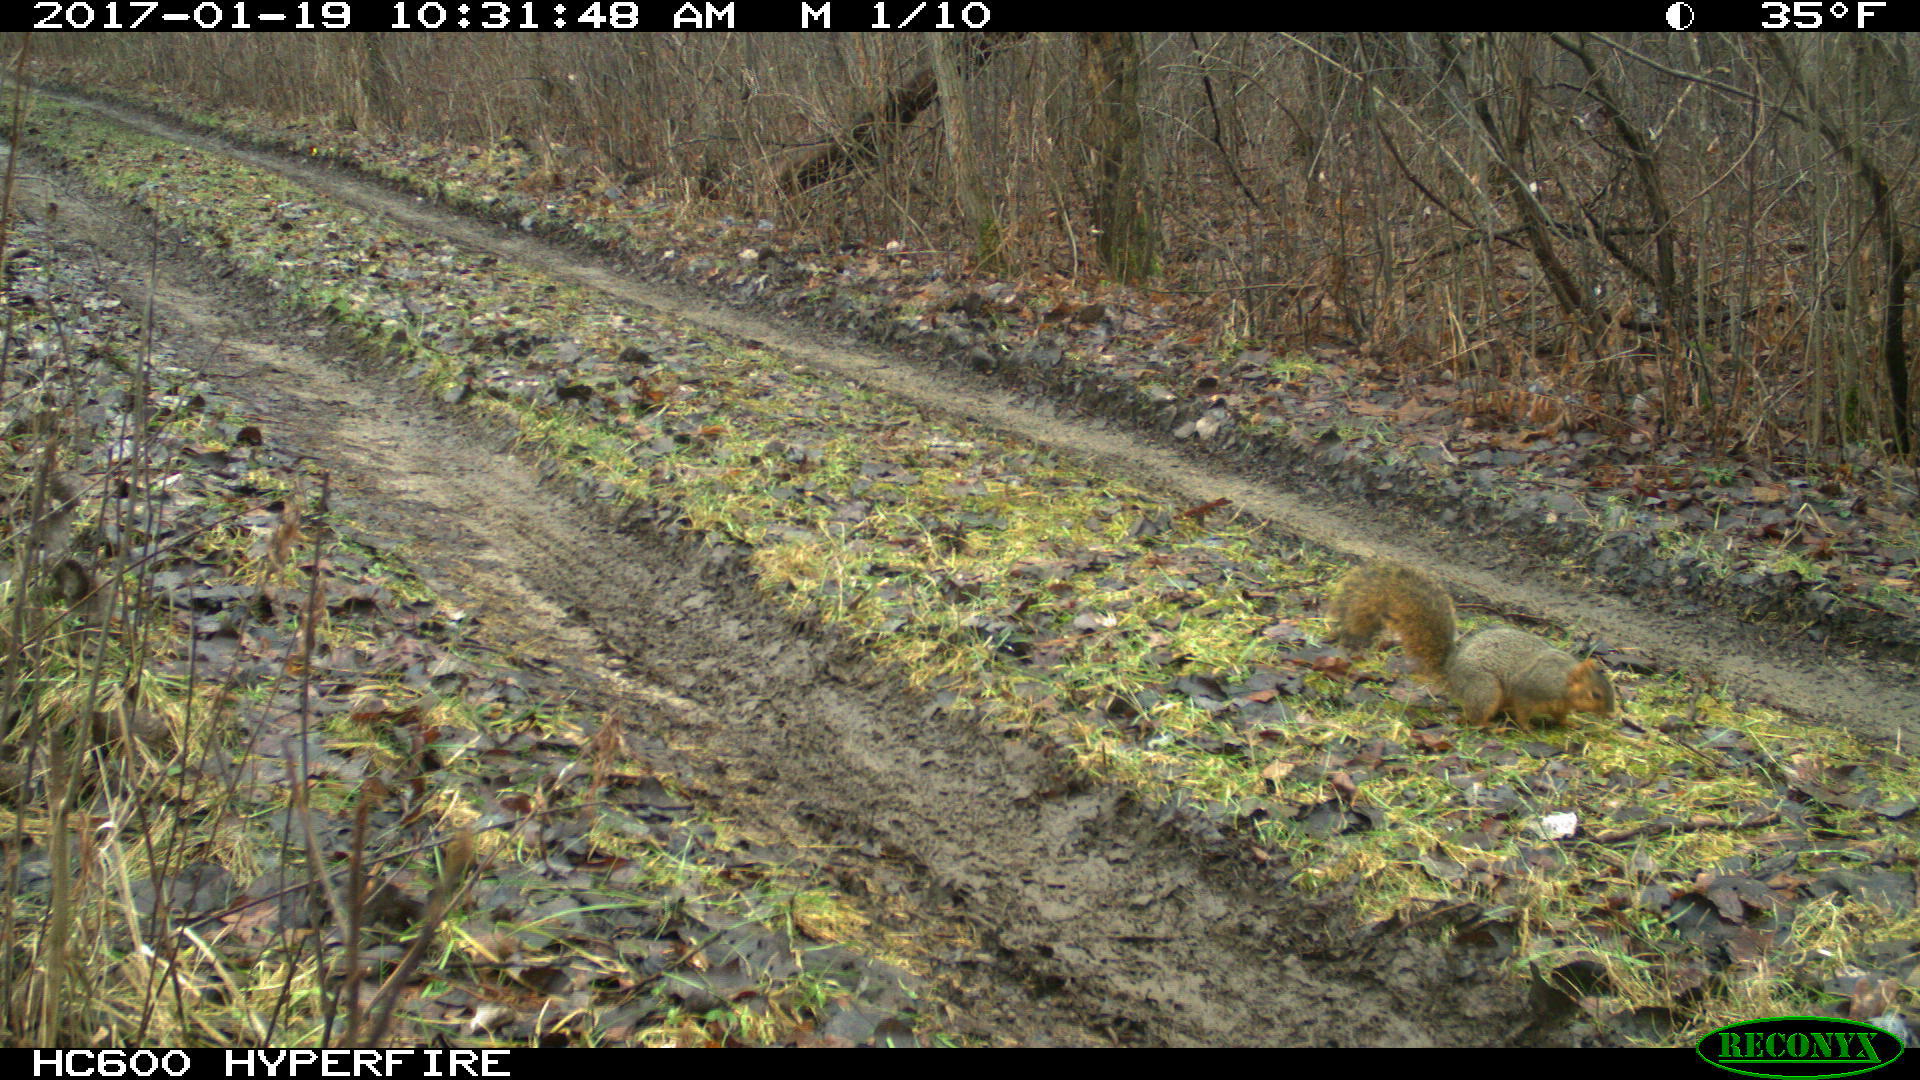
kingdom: Animalia
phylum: Chordata
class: Mammalia
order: Rodentia
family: Sciuridae
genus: Sciurus
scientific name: Sciurus niger
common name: Fox squirrel
